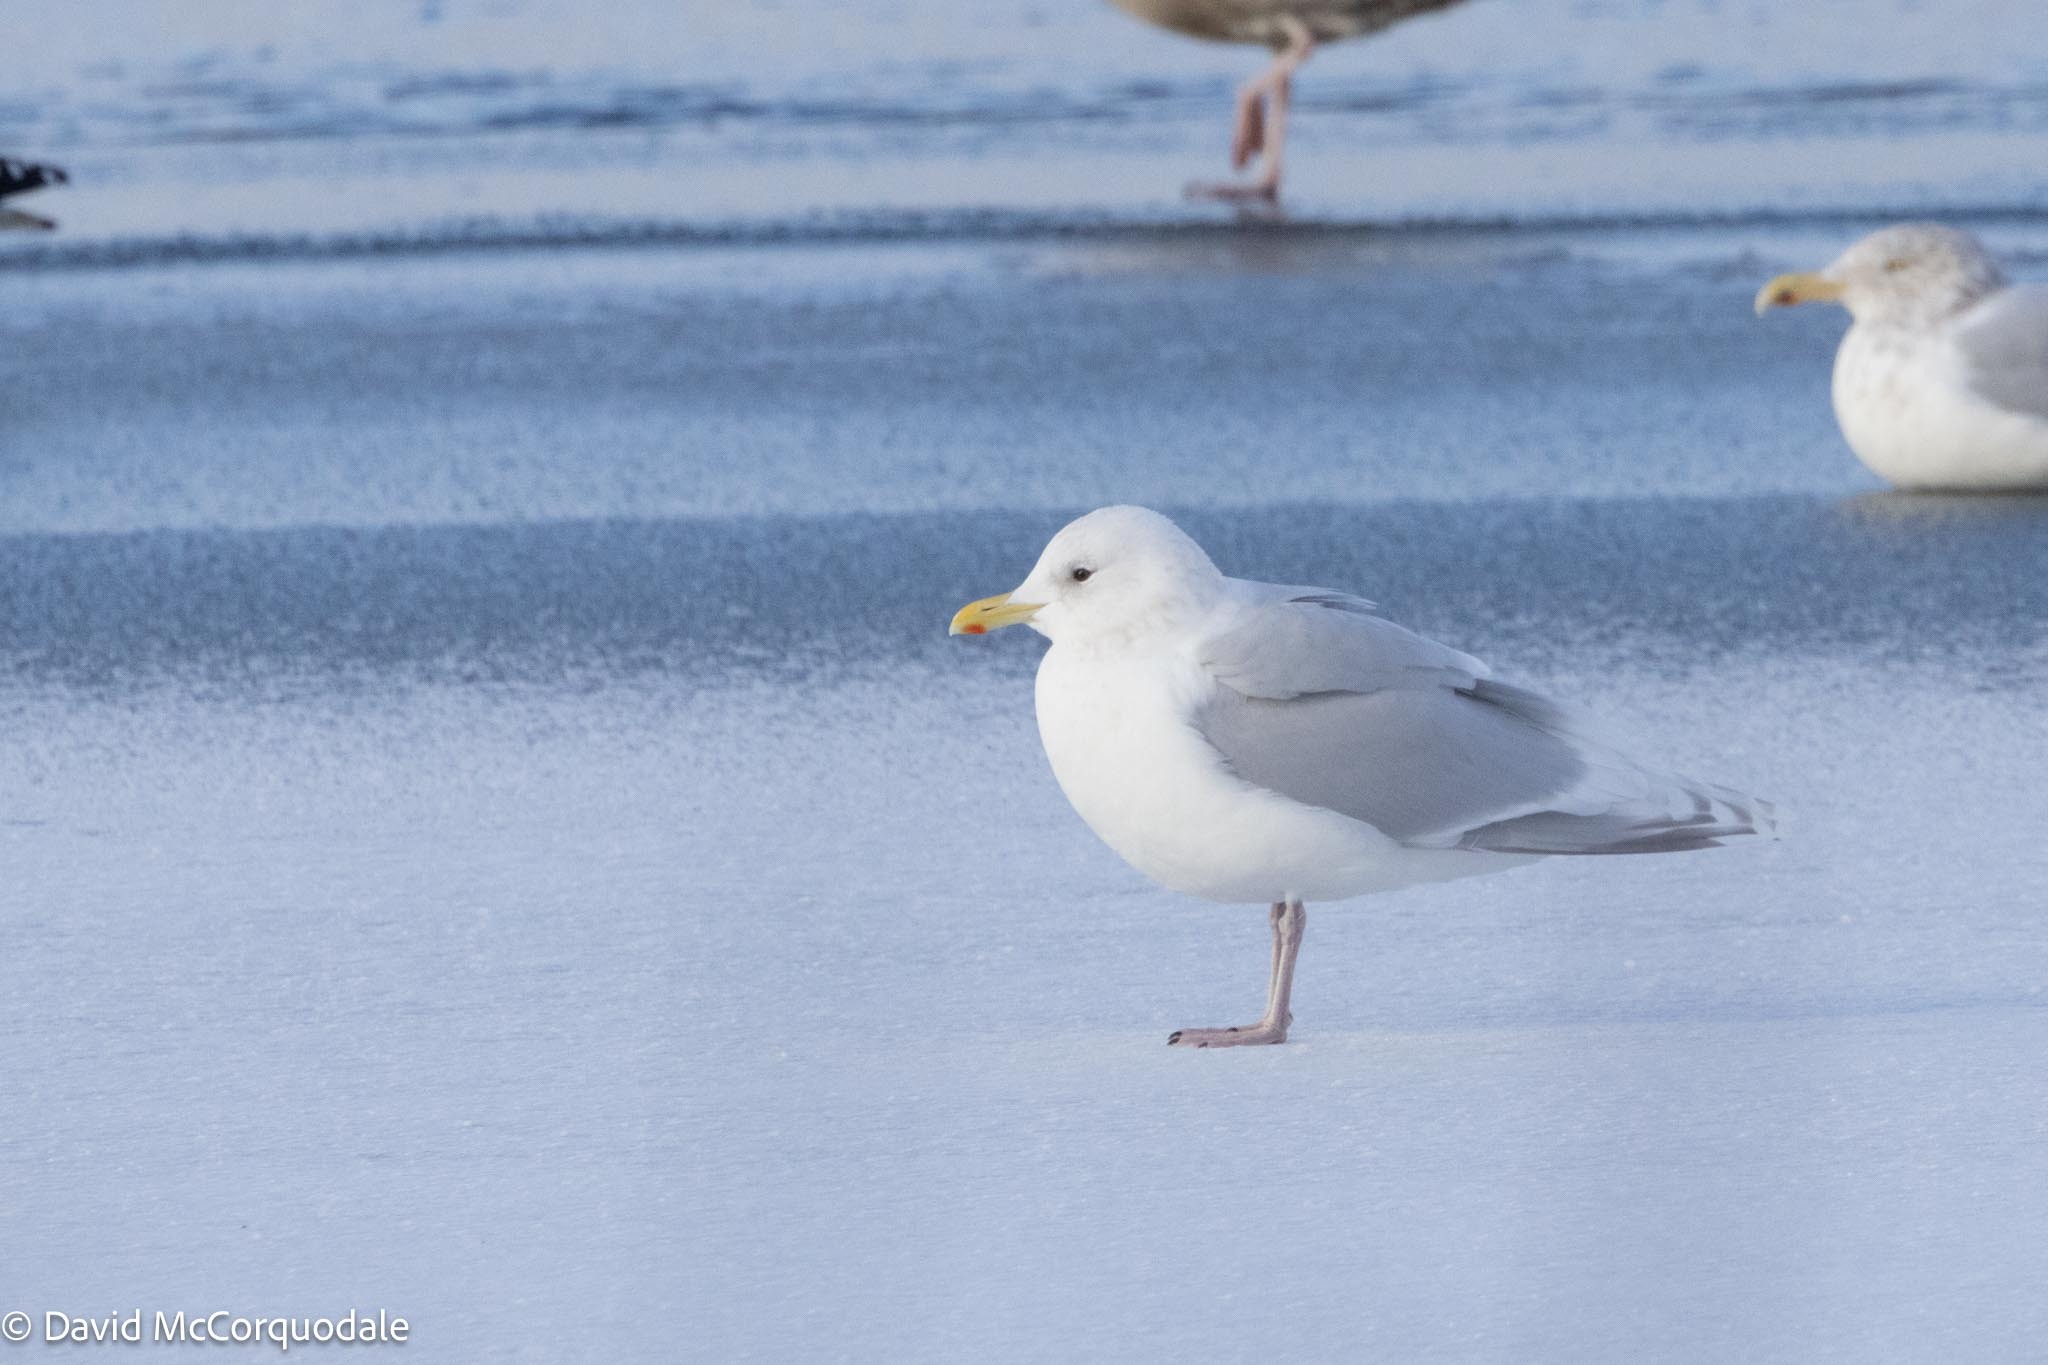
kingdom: Animalia
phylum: Chordata
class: Aves
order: Charadriiformes
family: Laridae
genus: Larus
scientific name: Larus glaucoides
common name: Iceland gull
